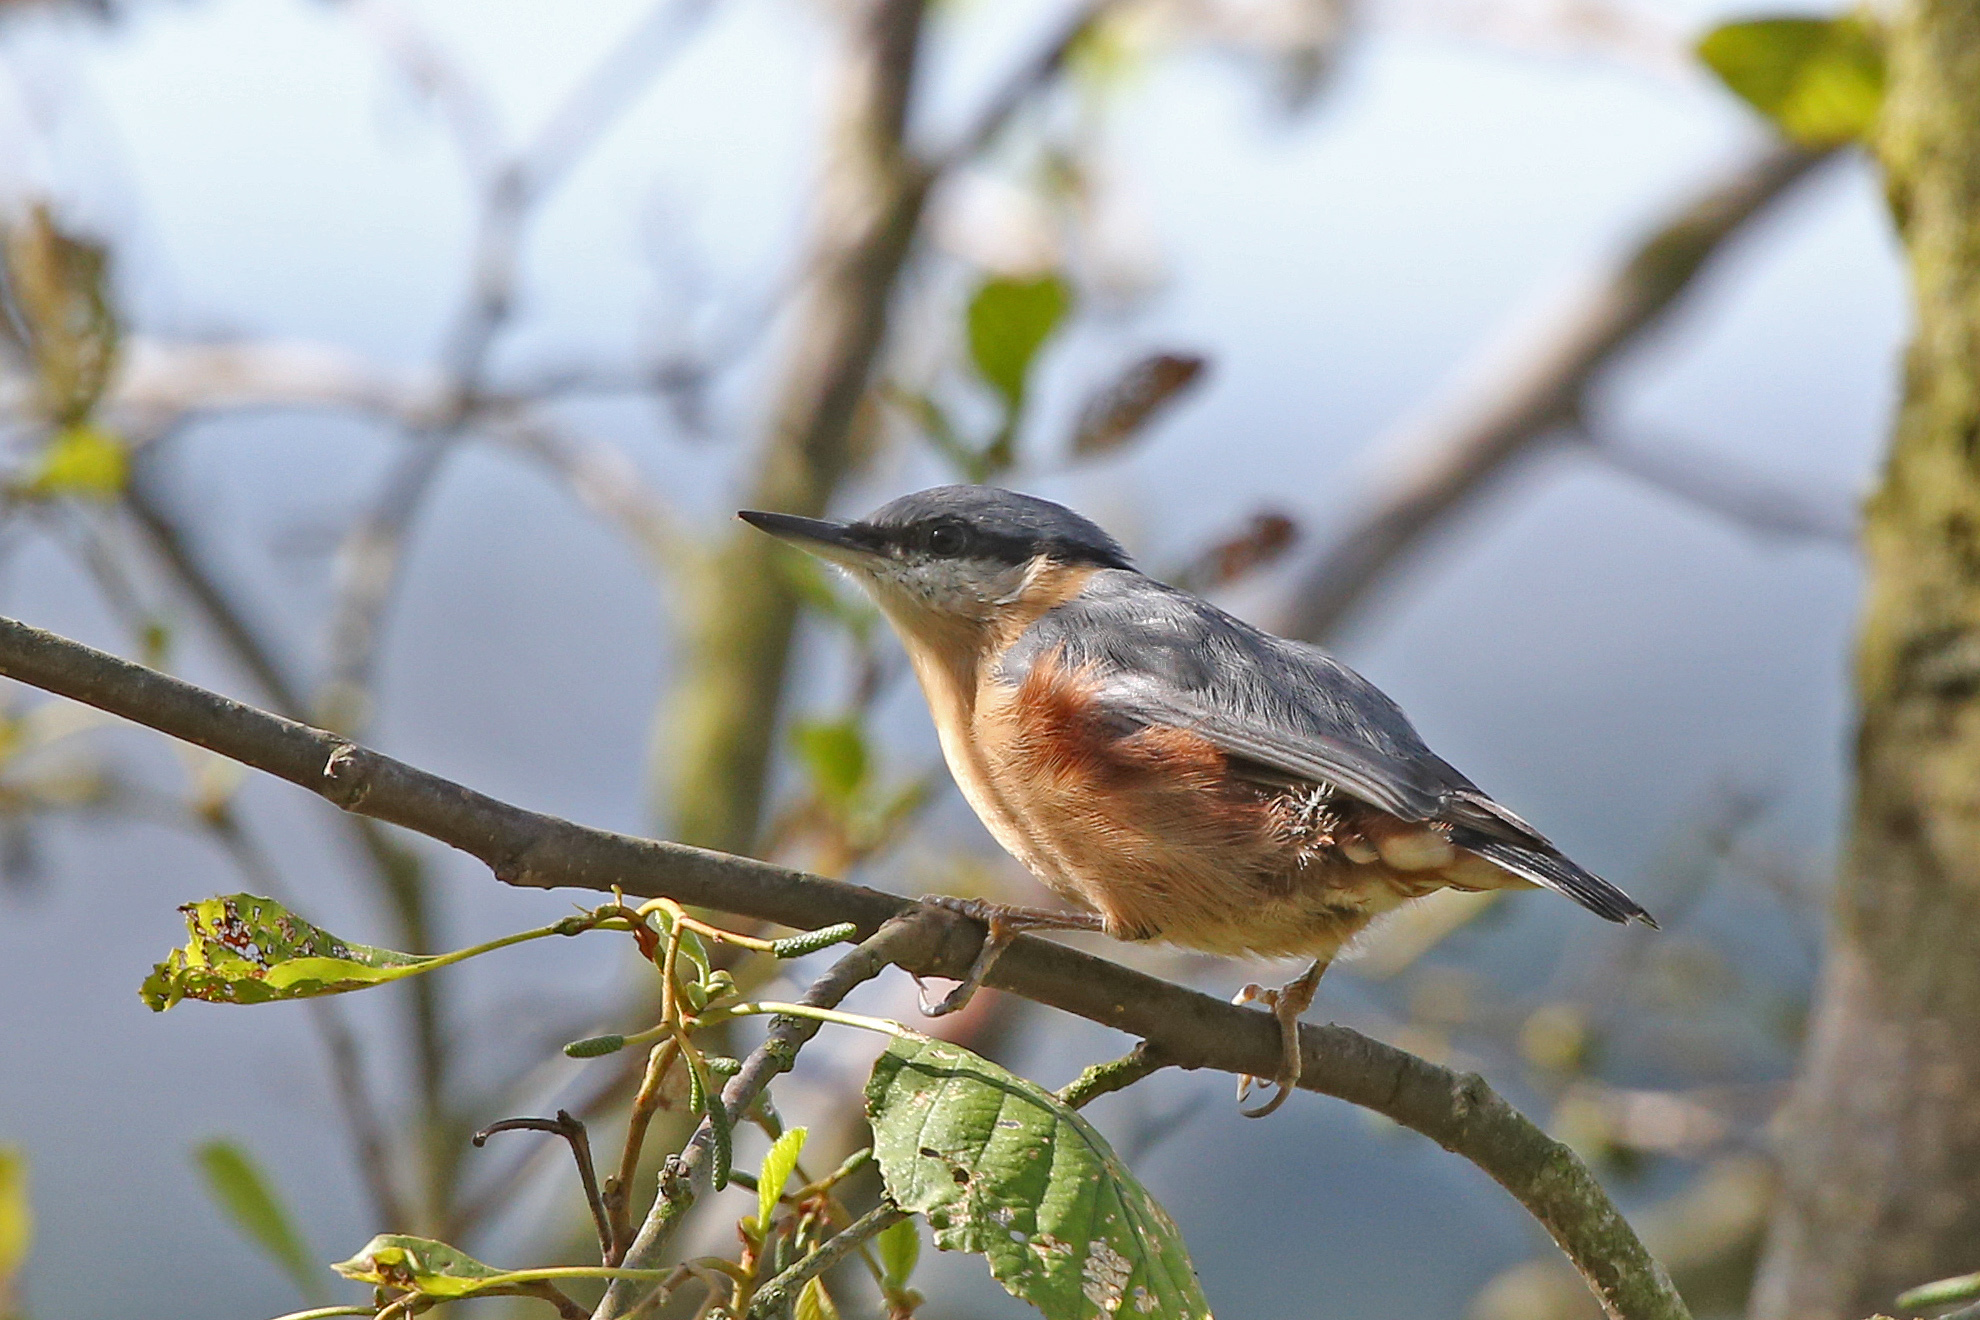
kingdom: Animalia
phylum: Chordata
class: Aves
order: Passeriformes
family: Sittidae
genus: Sitta
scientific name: Sitta europaea
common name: Eurasian nuthatch
